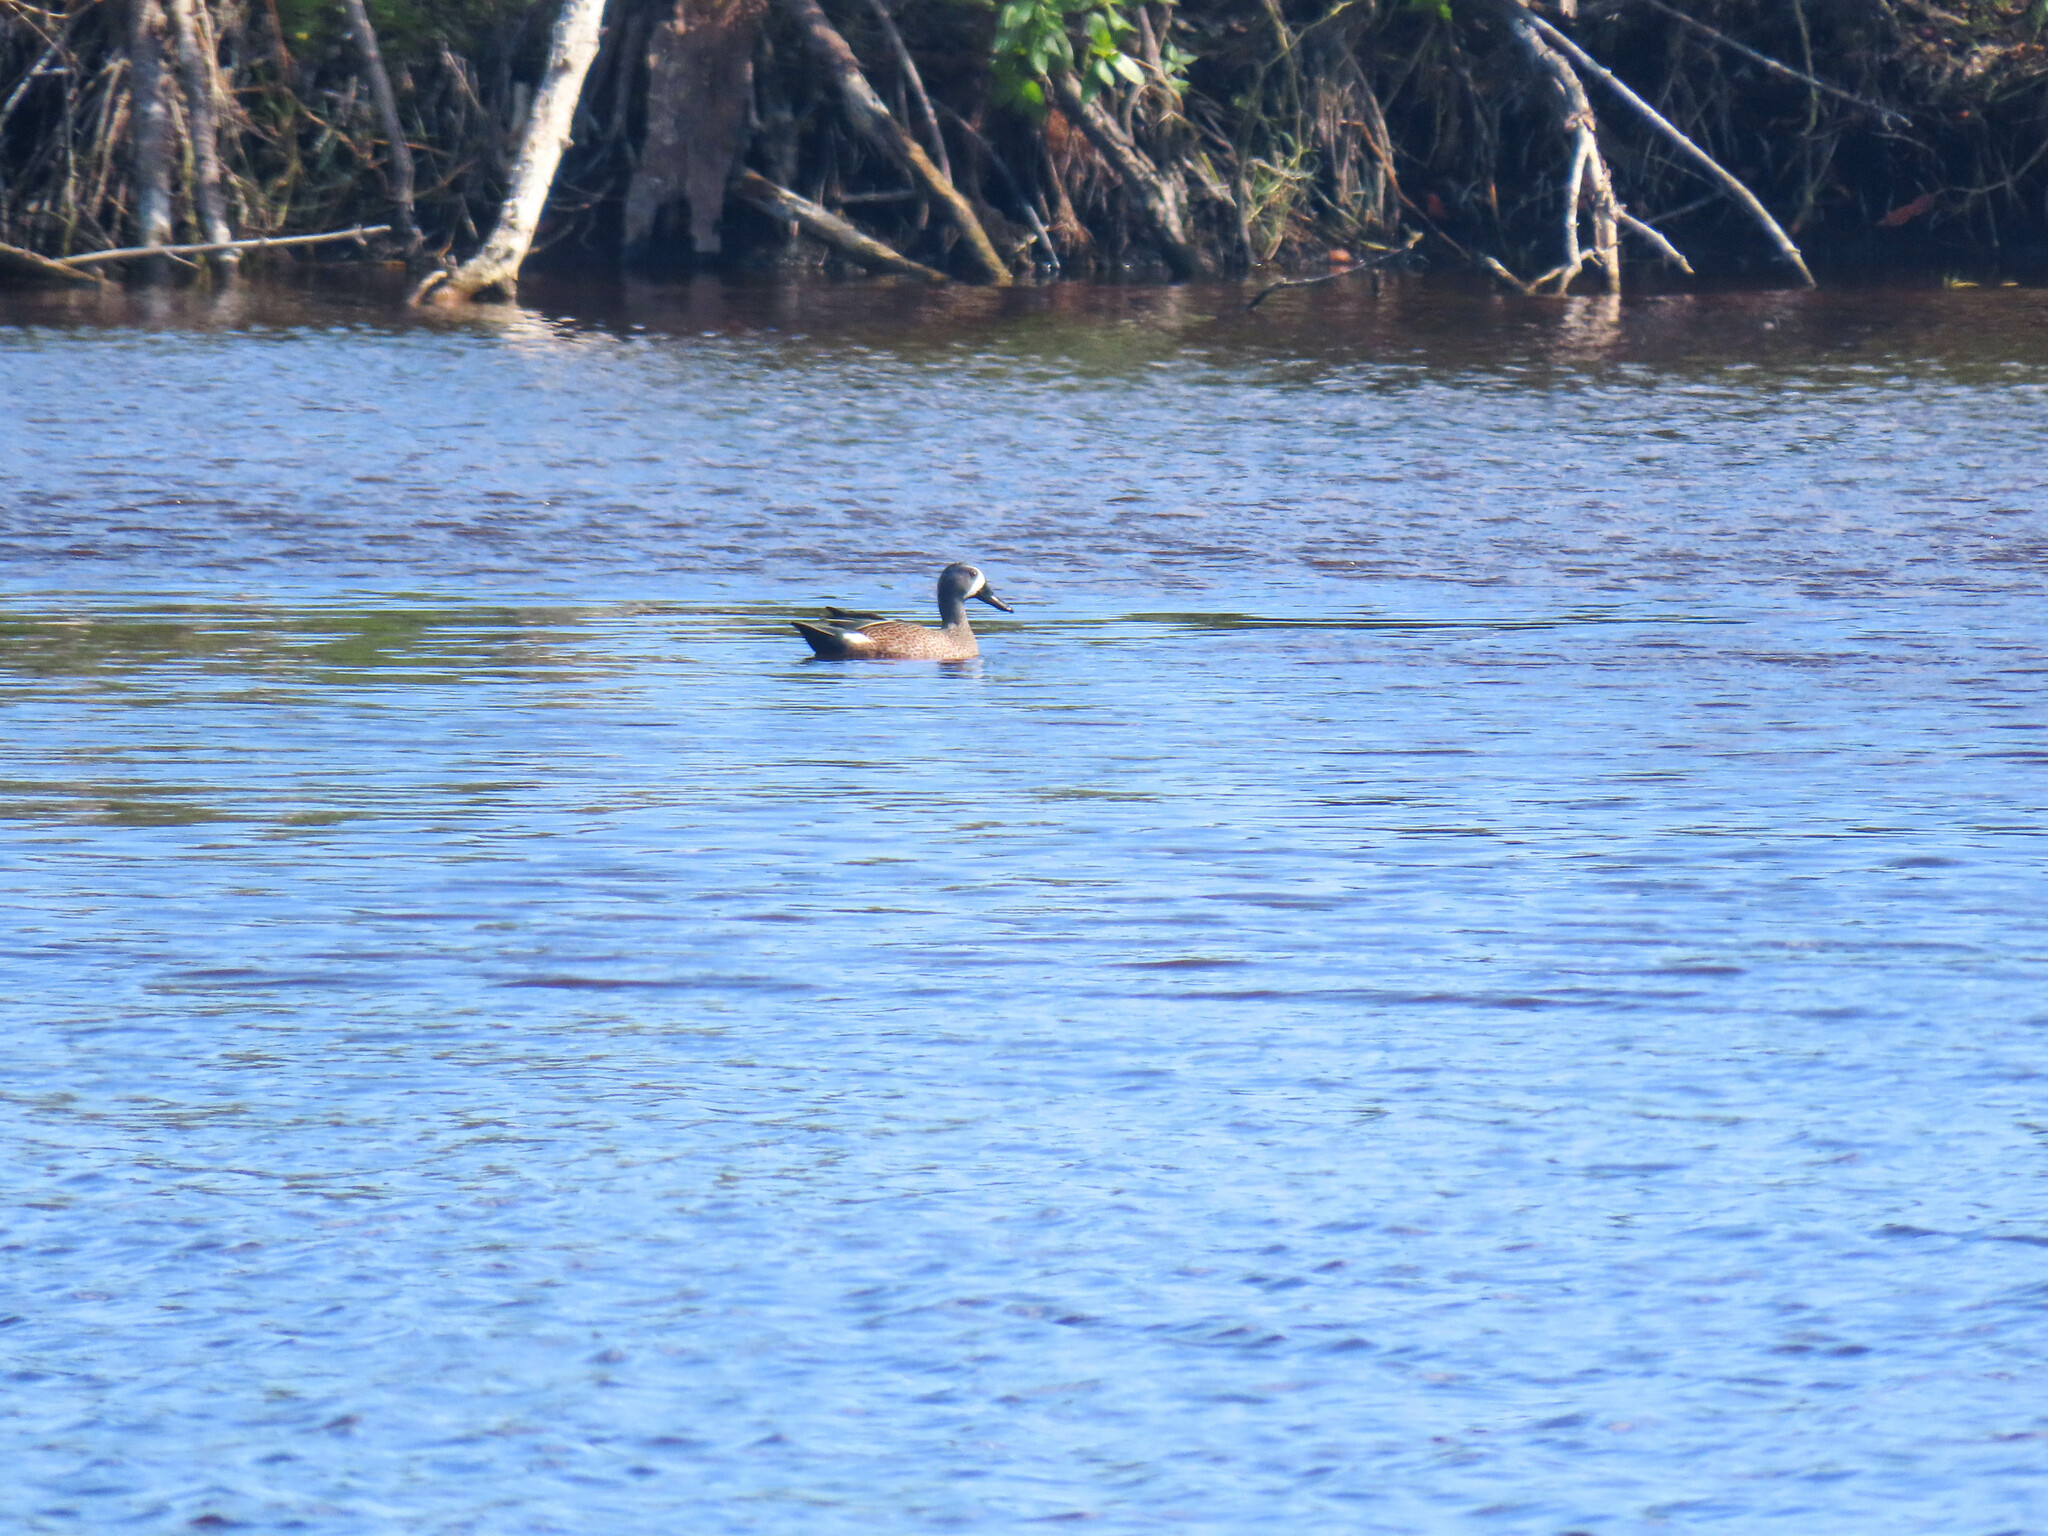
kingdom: Animalia
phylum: Chordata
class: Aves
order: Anseriformes
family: Anatidae
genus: Spatula
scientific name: Spatula discors
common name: Blue-winged teal
